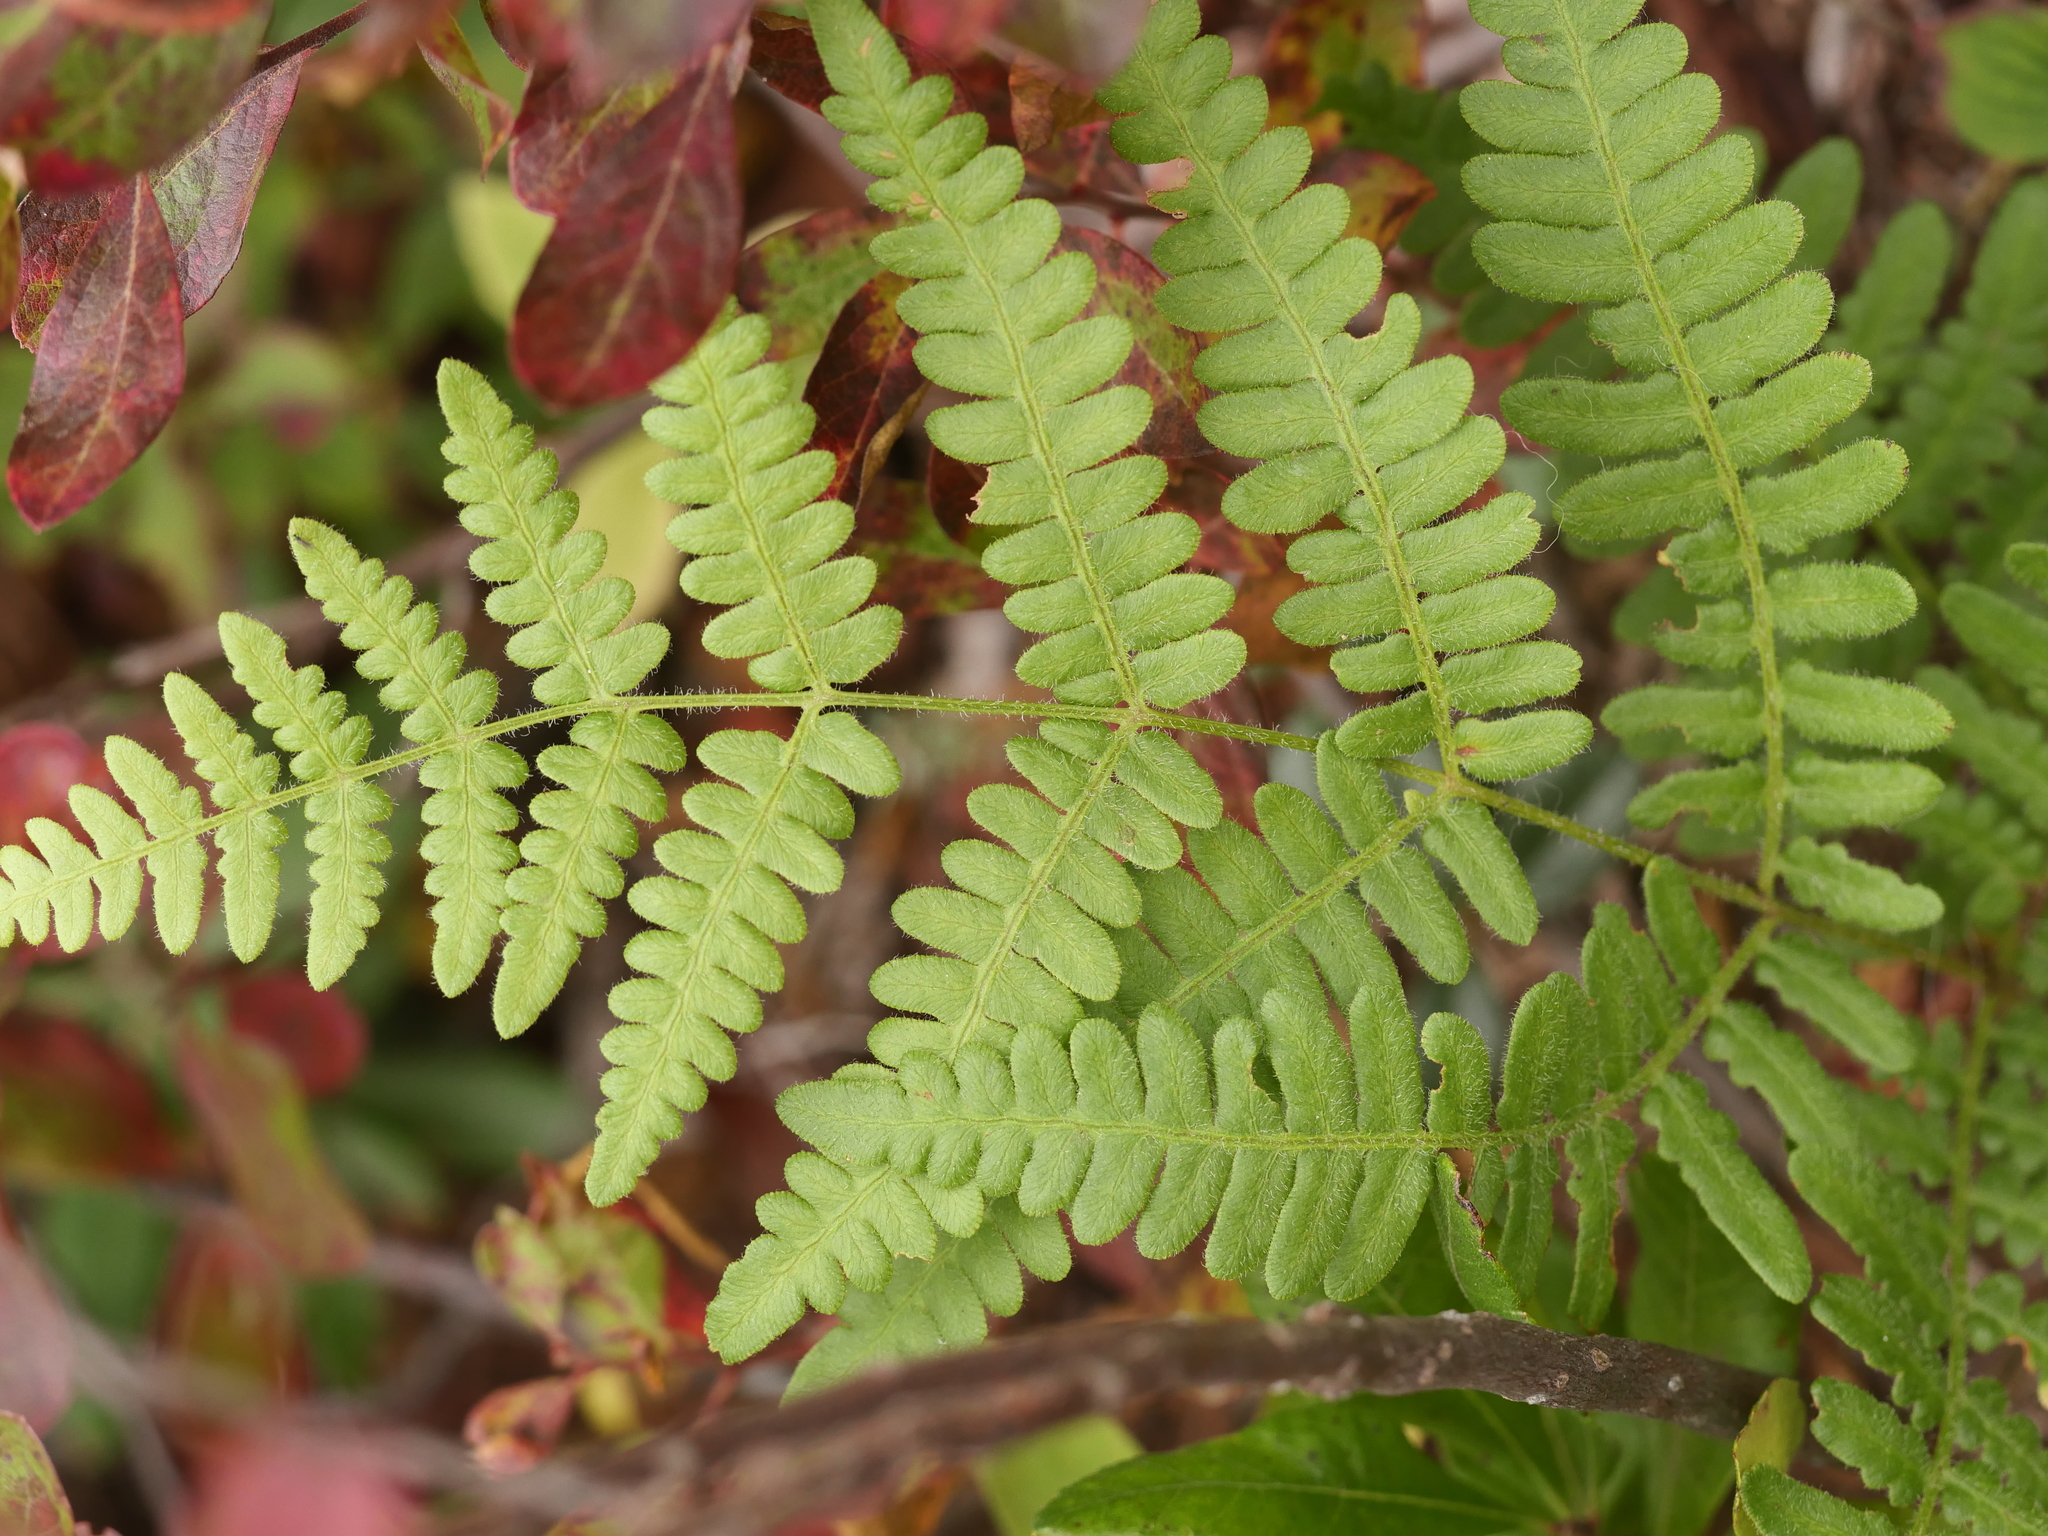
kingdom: Plantae
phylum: Tracheophyta
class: Polypodiopsida
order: Polypodiales
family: Dennstaedtiaceae
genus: Pteridium
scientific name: Pteridium aquilinum
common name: Bracken
